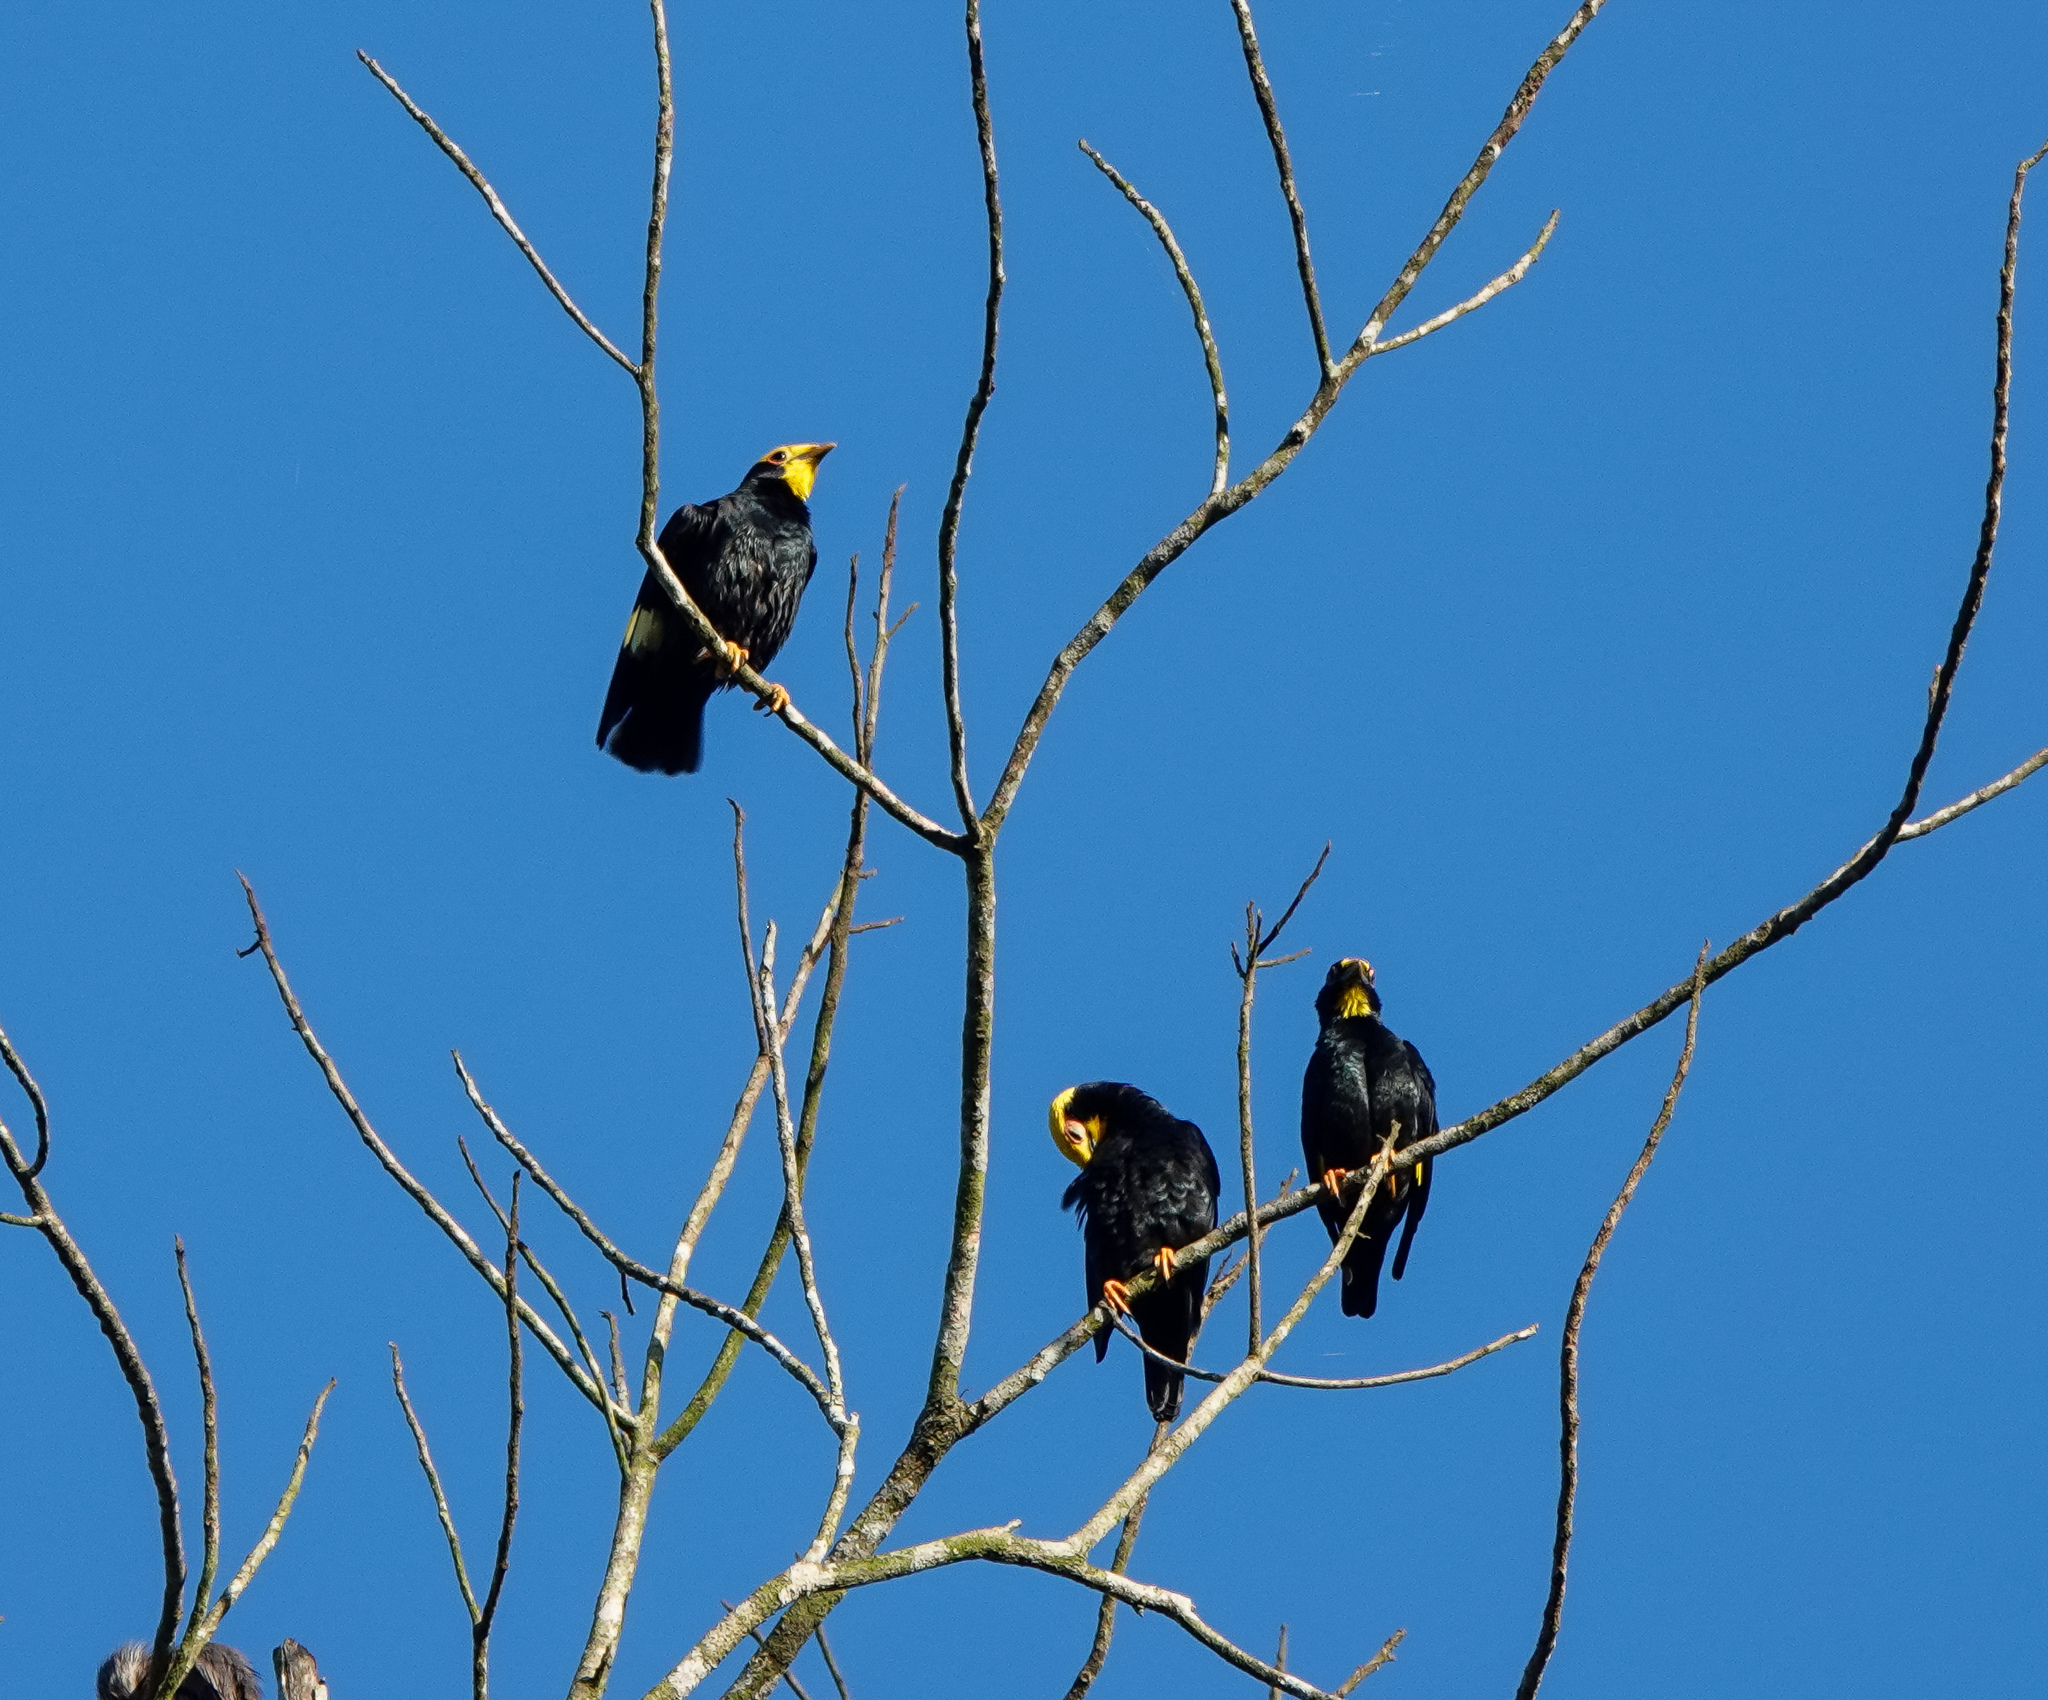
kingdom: Animalia
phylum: Chordata
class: Aves
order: Passeriformes
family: Sturnidae
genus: Ampeliceps
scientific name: Ampeliceps coronatus
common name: Golden-crested myna
